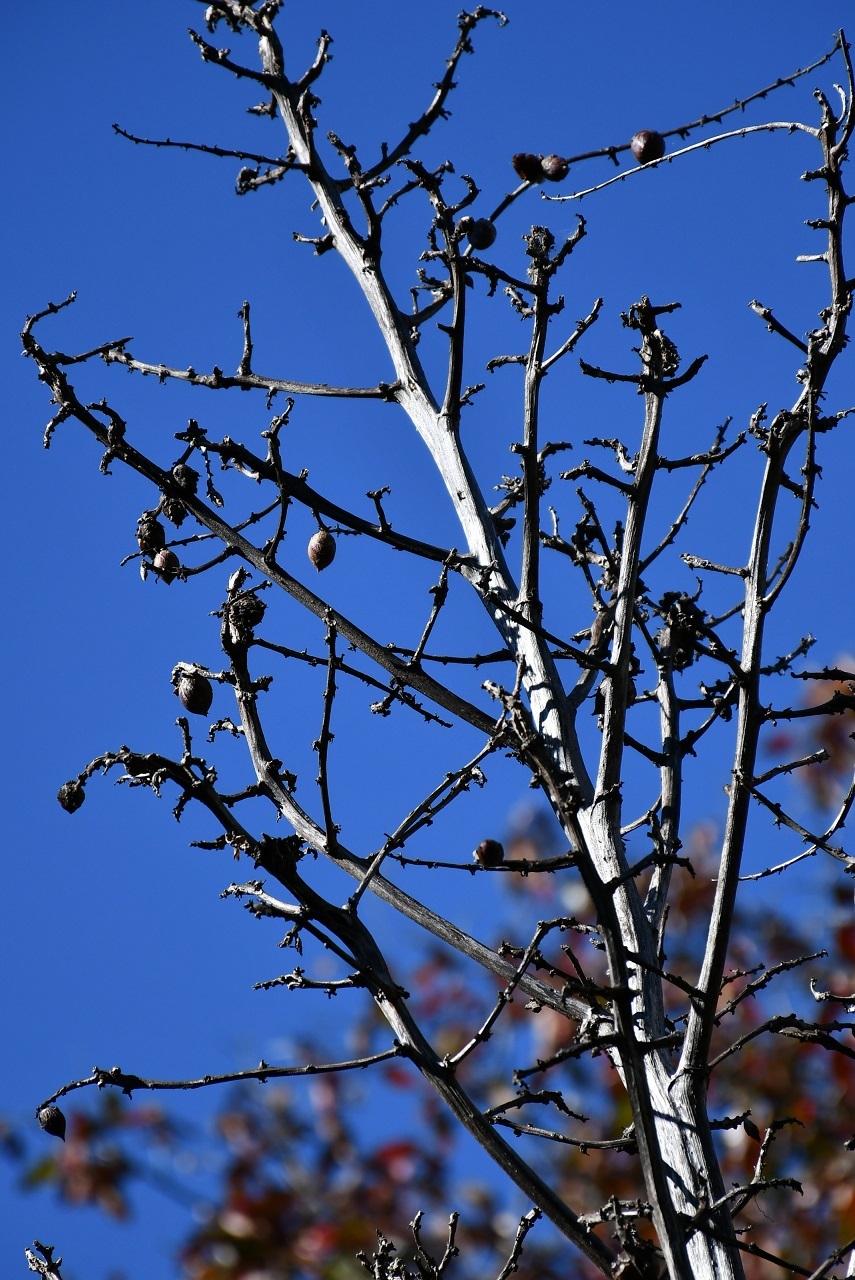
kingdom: Plantae
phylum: Tracheophyta
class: Liliopsida
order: Asparagales
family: Asparagaceae
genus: Furcraea
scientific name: Furcraea guatemalensis
